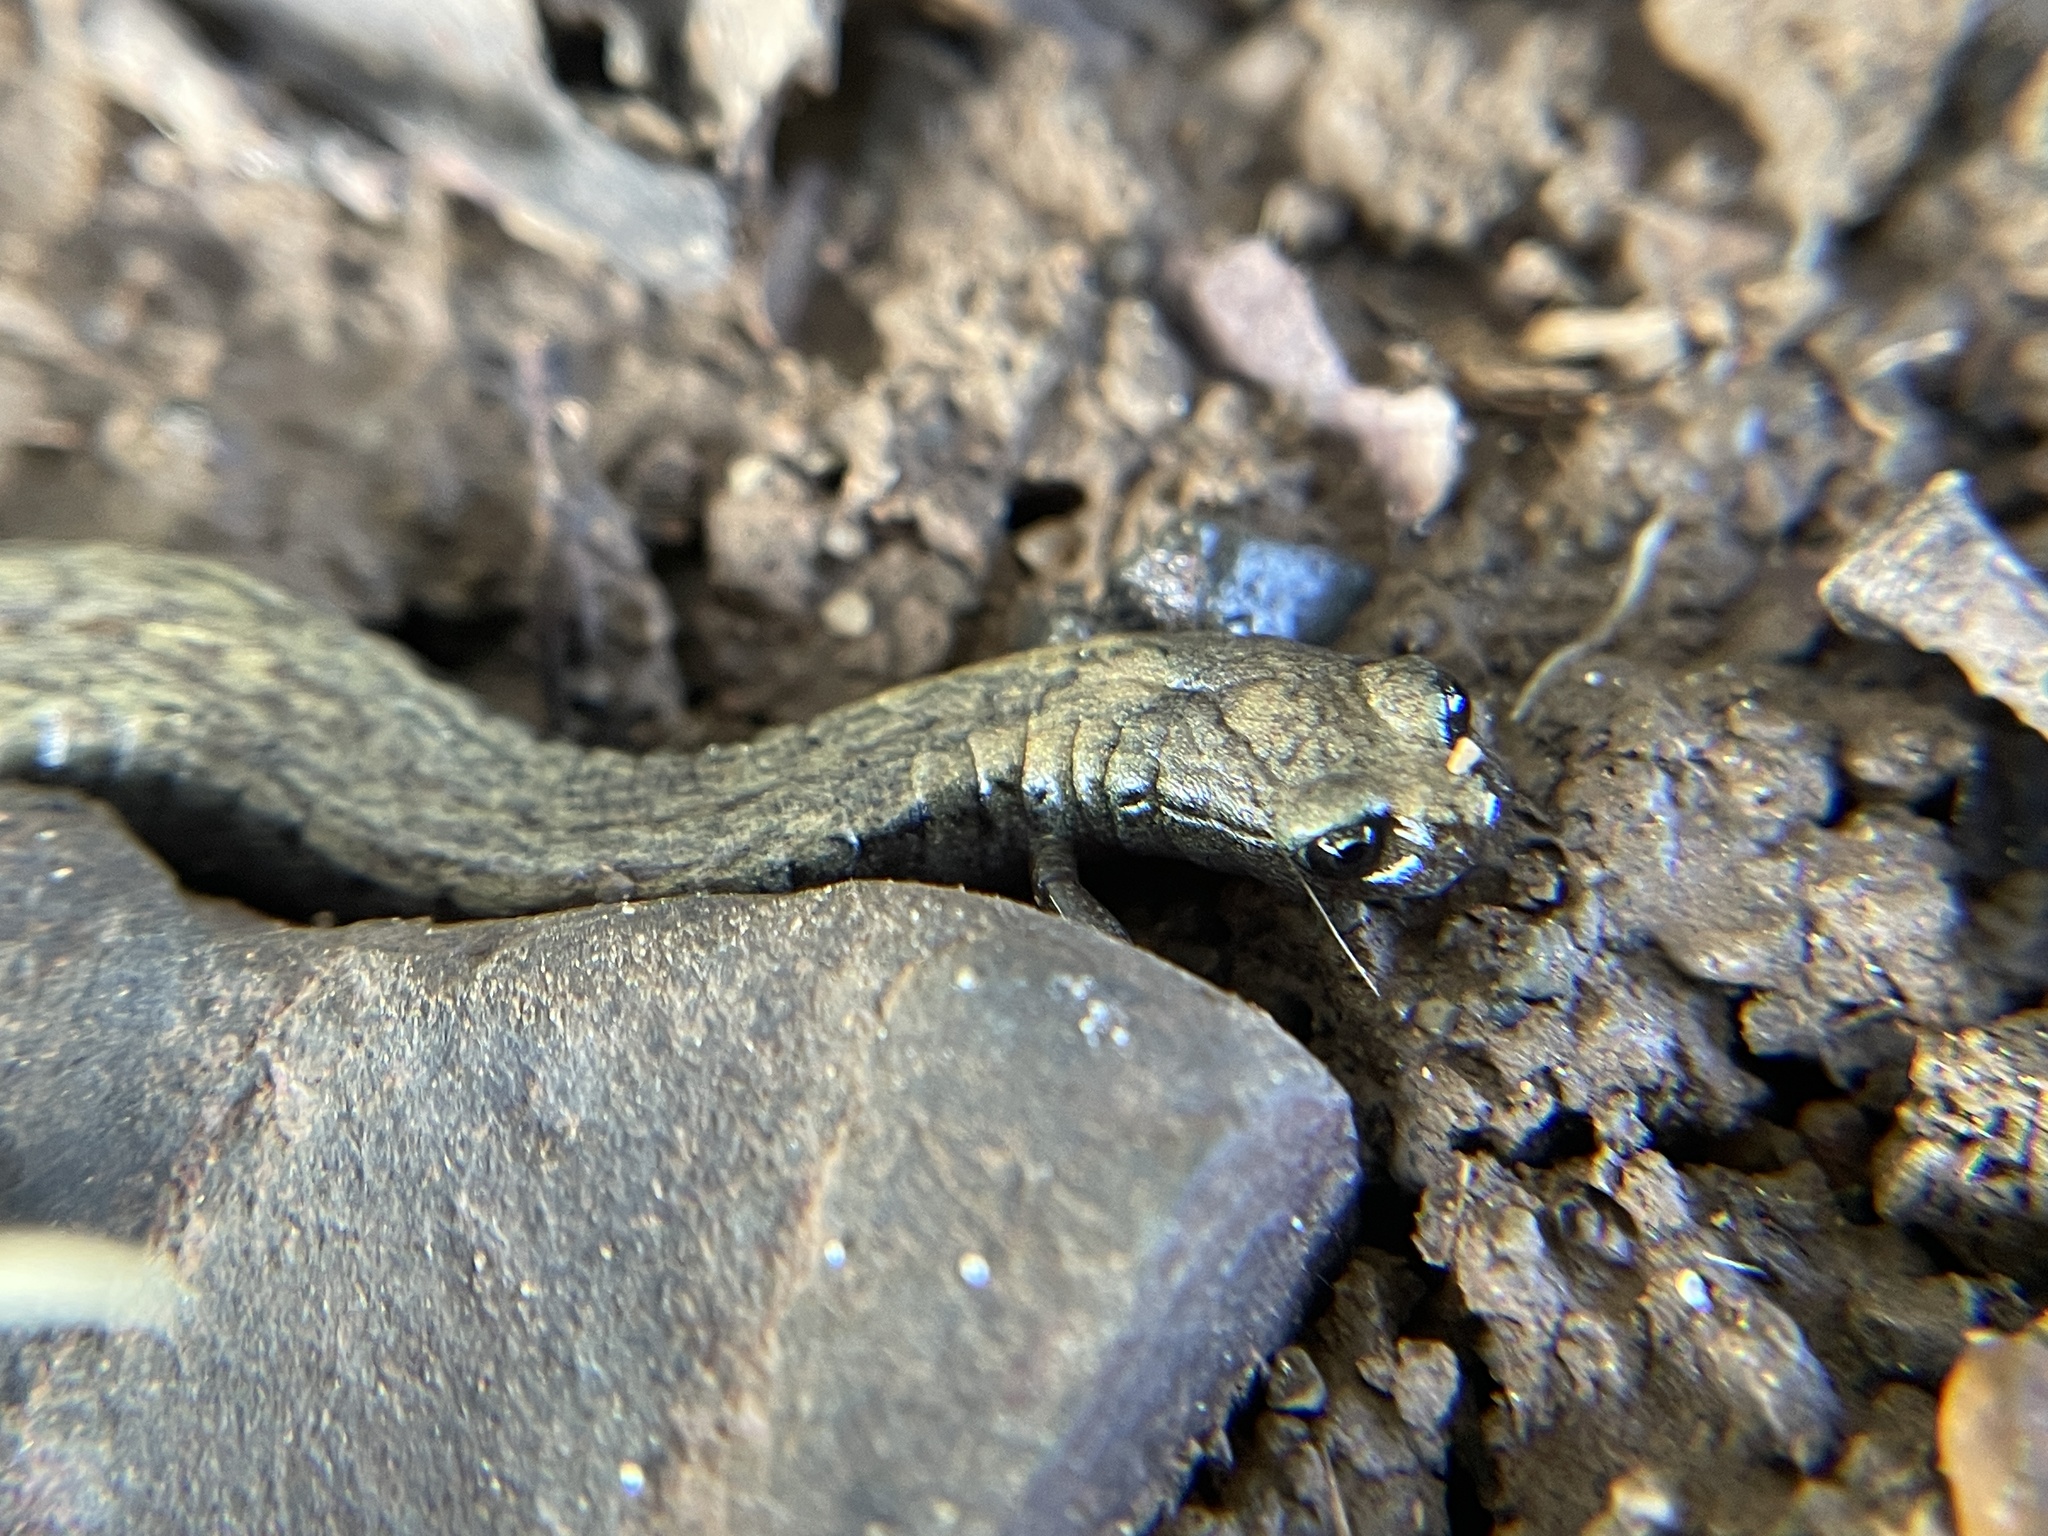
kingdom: Animalia
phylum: Chordata
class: Amphibia
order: Caudata
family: Plethodontidae
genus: Batrachoseps
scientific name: Batrachoseps attenuatus
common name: California slender salamander
